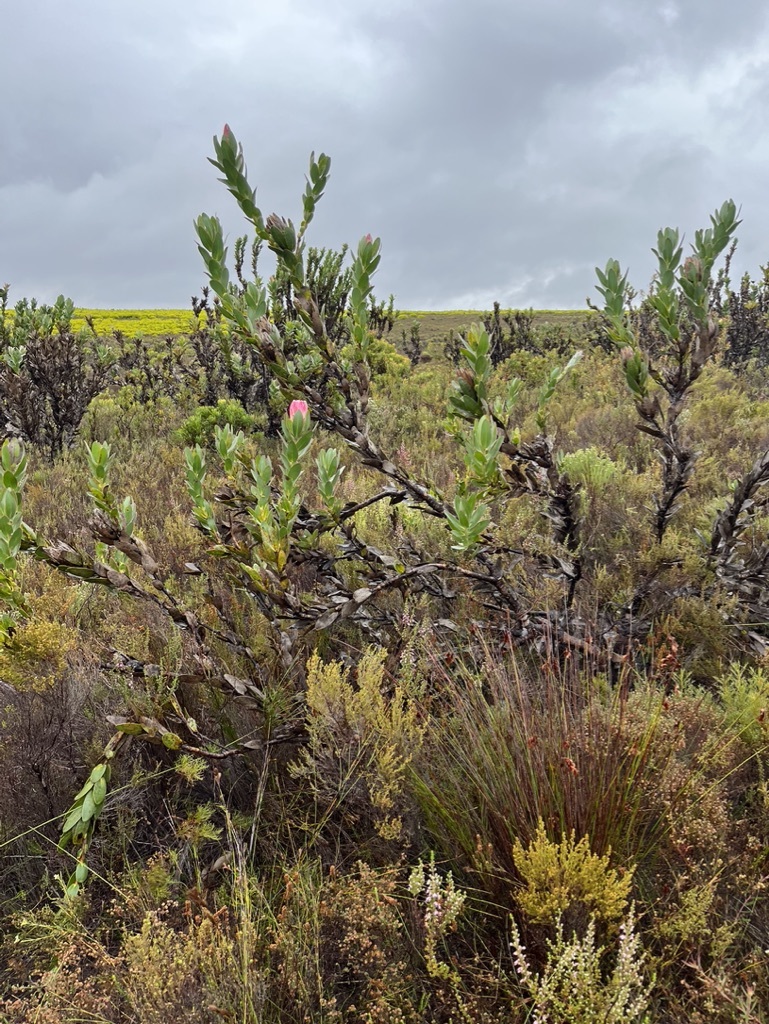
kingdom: Plantae
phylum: Tracheophyta
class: Magnoliopsida
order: Proteales
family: Proteaceae
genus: Protea
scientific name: Protea compacta
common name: Bot river protea
